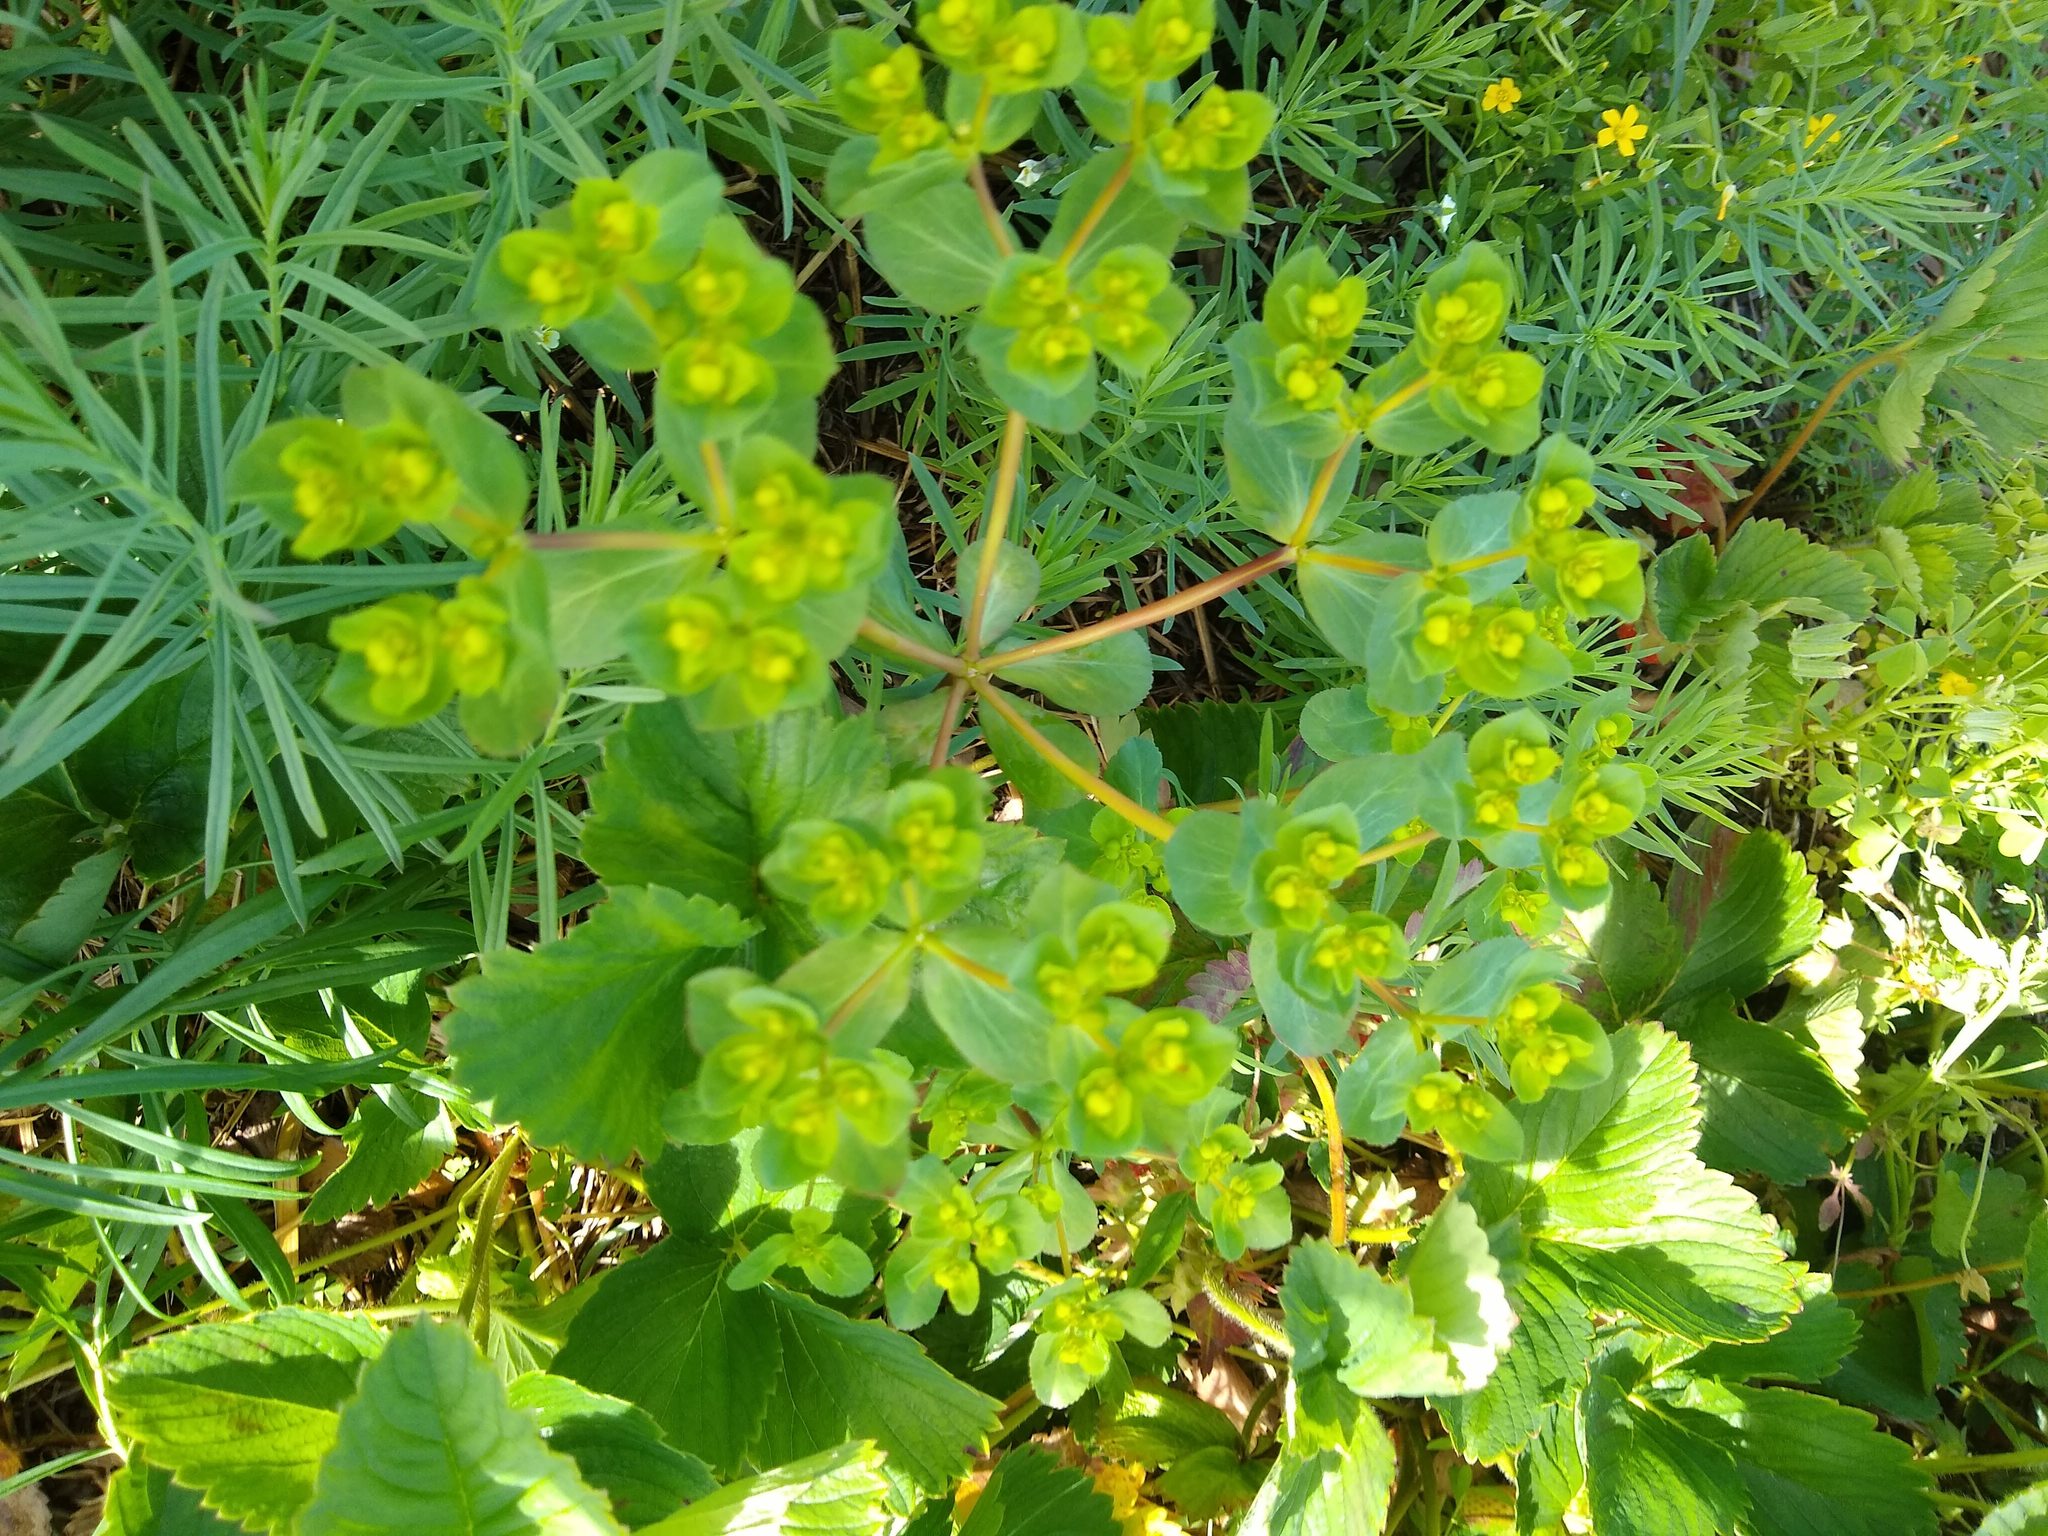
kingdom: Plantae
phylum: Tracheophyta
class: Magnoliopsida
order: Malpighiales
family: Euphorbiaceae
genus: Euphorbia
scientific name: Euphorbia helioscopia
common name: Sun spurge
